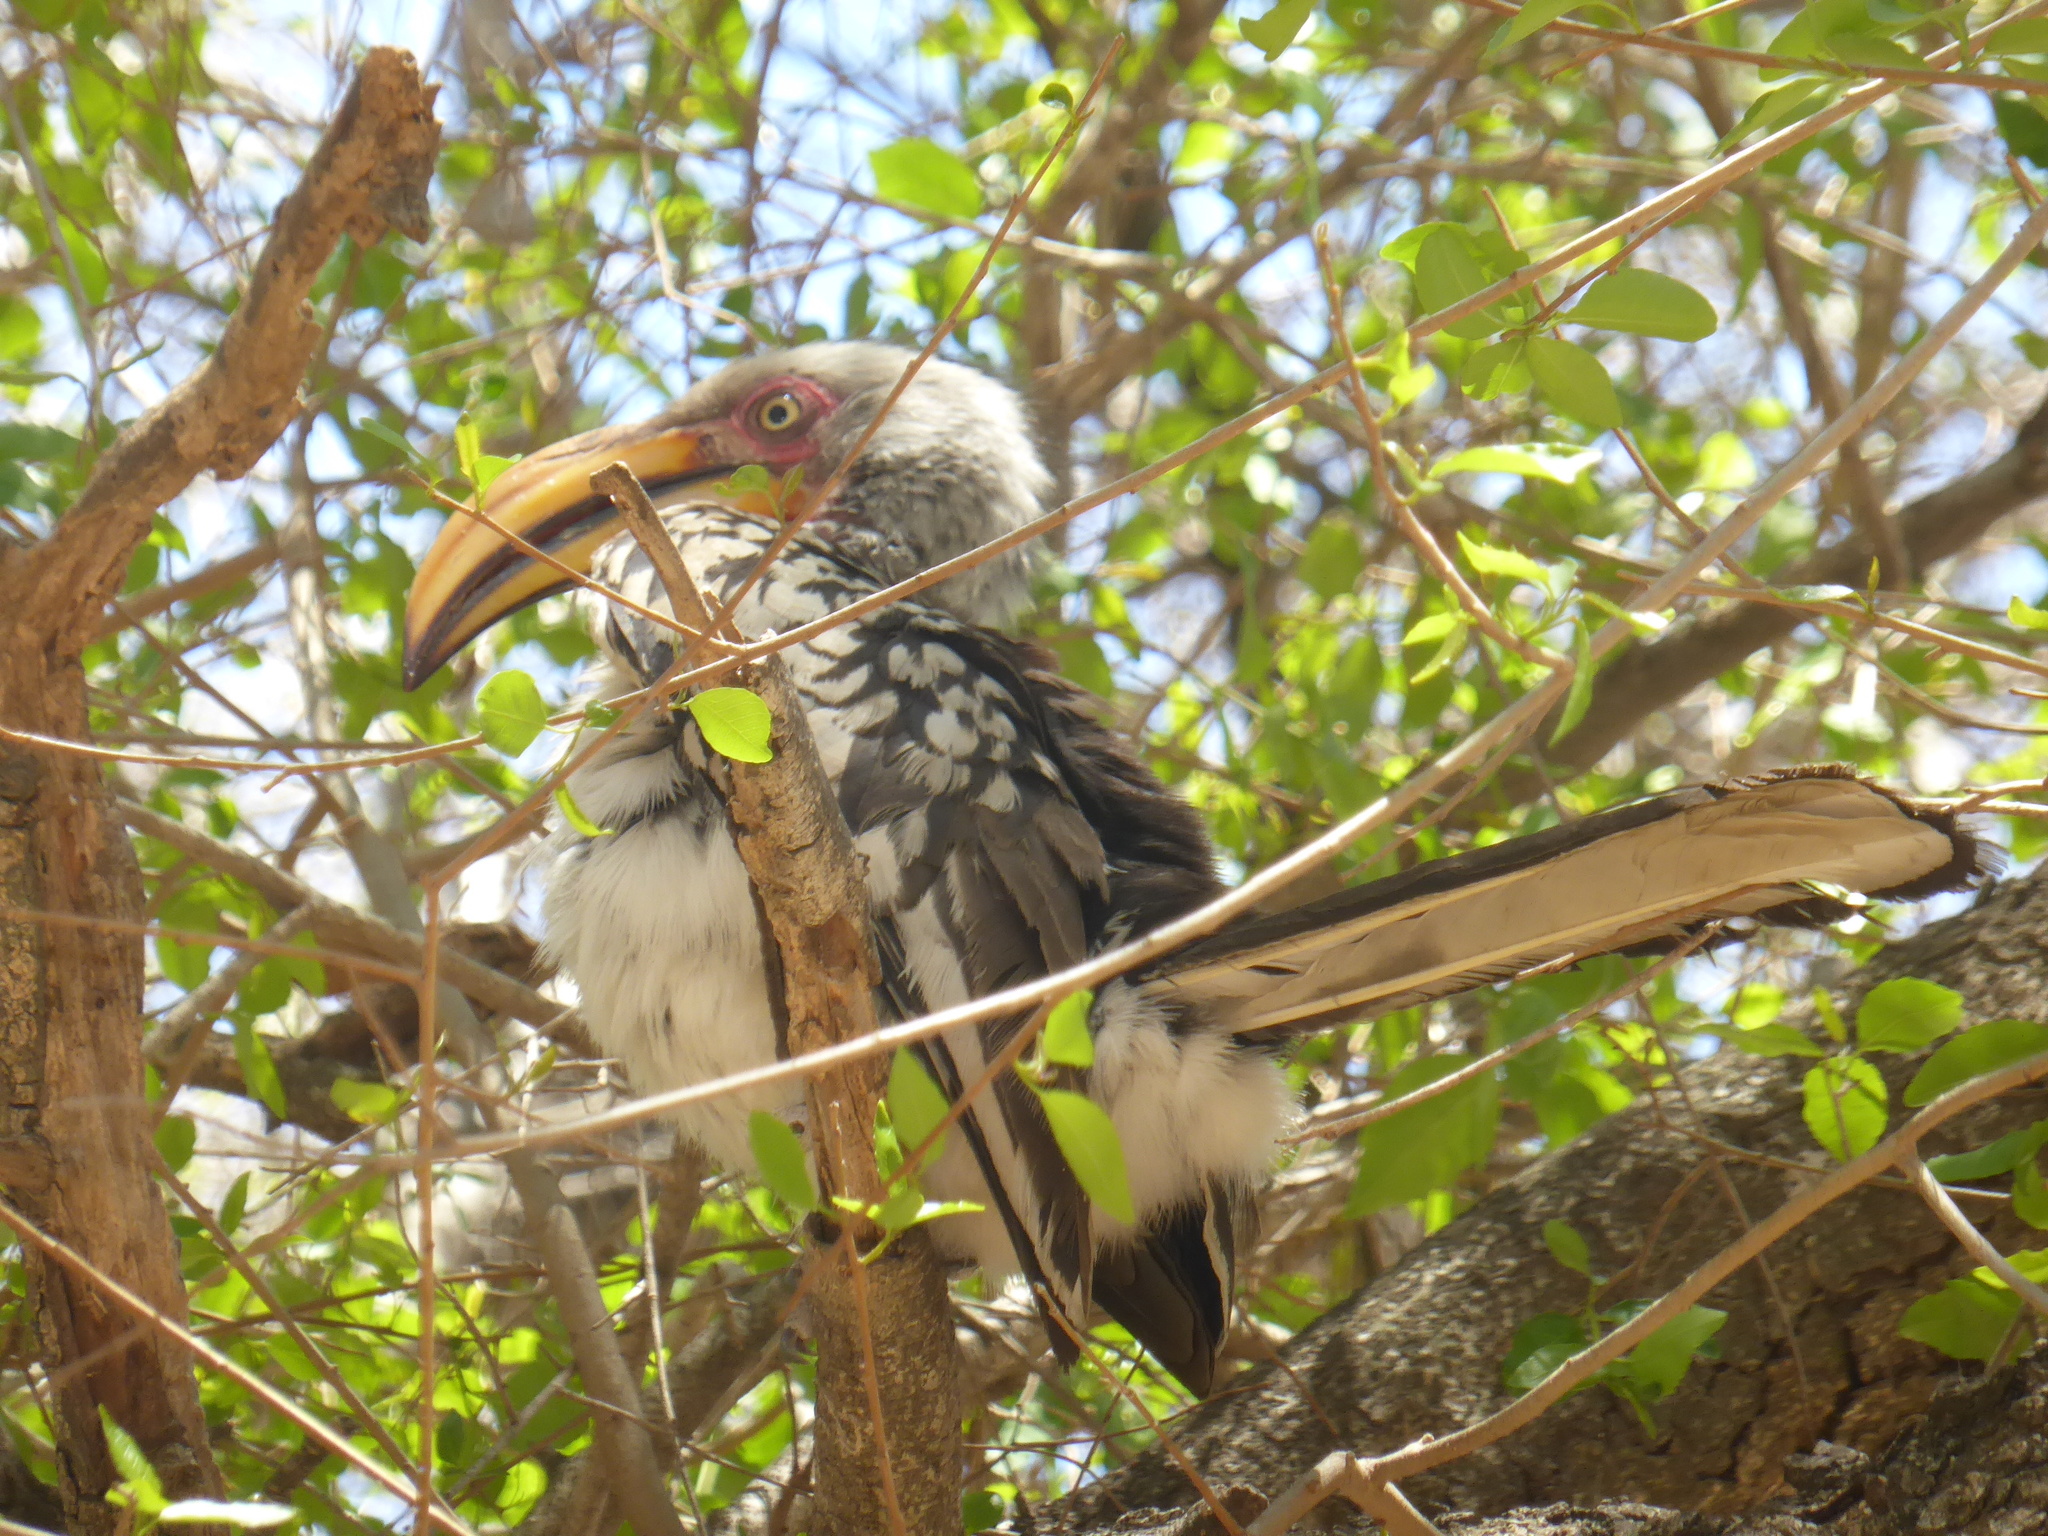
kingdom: Animalia
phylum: Chordata
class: Aves
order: Bucerotiformes
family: Bucerotidae
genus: Tockus
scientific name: Tockus leucomelas
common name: Southern yellow-billed hornbill
